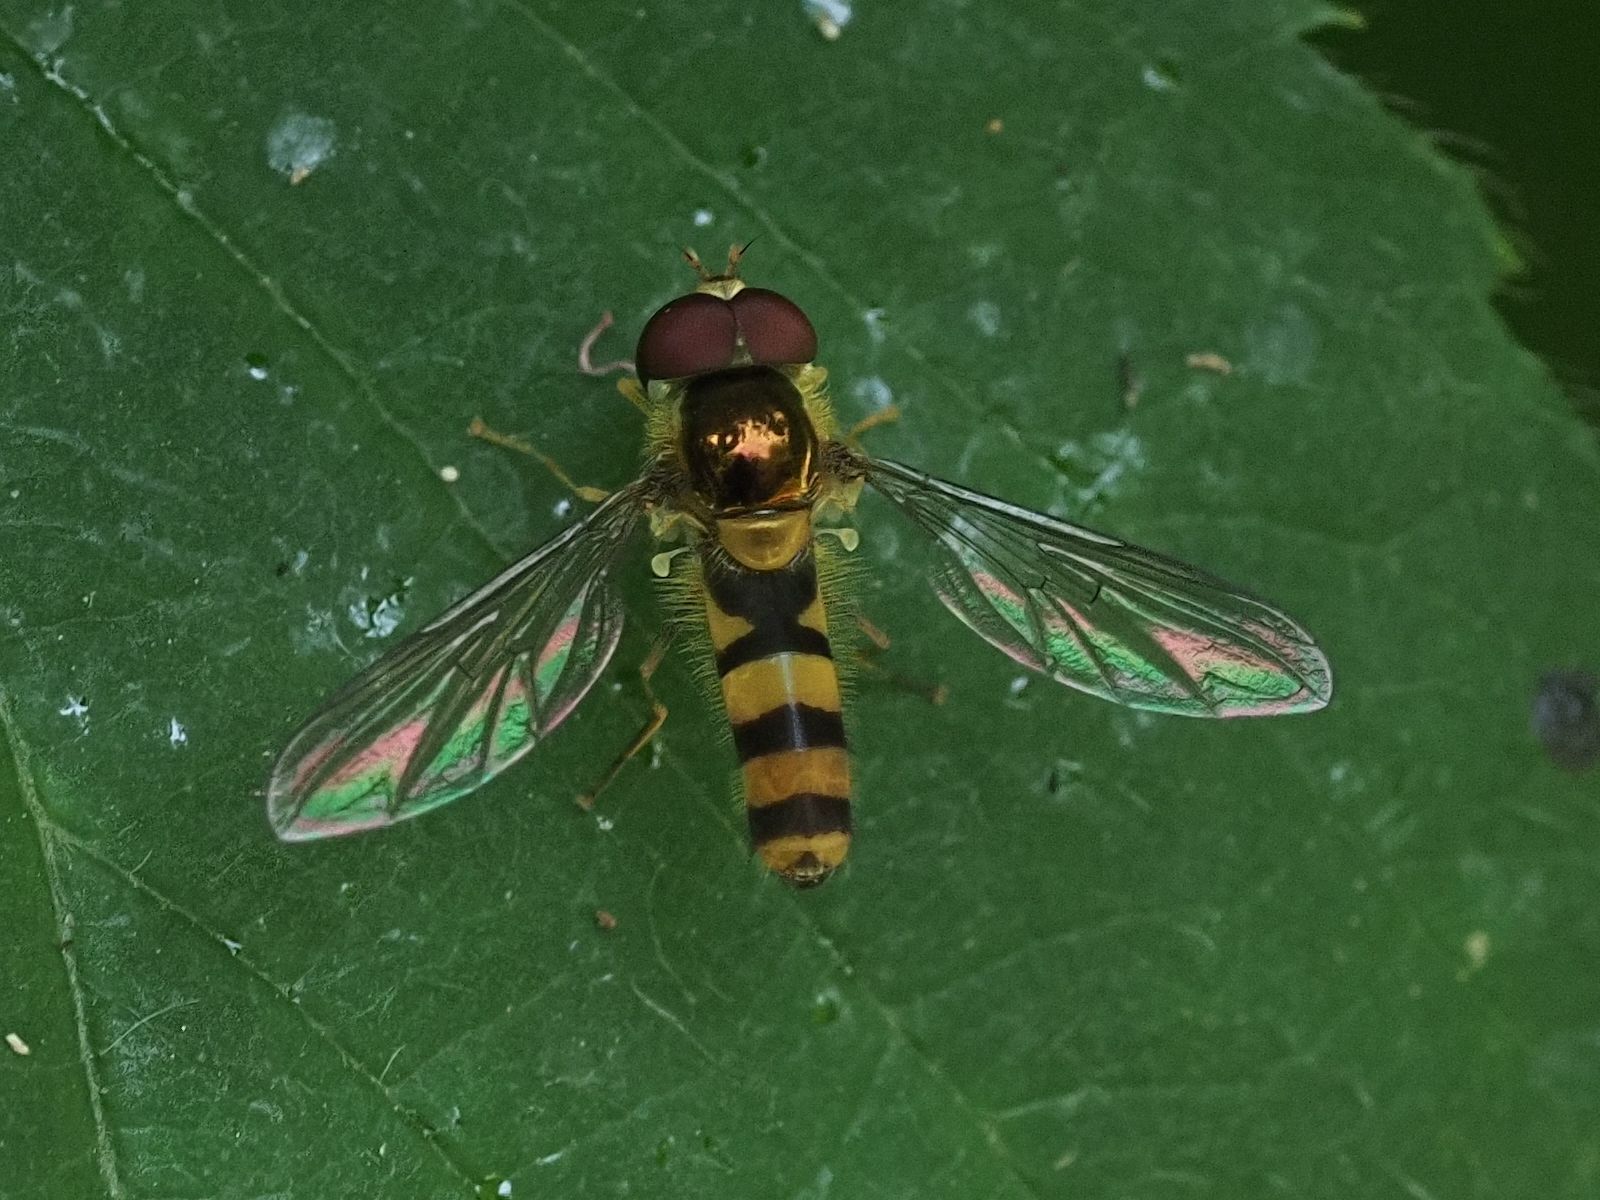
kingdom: Animalia
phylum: Arthropoda
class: Insecta
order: Diptera
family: Syrphidae
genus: Fagisyrphus
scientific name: Fagisyrphus cincta
